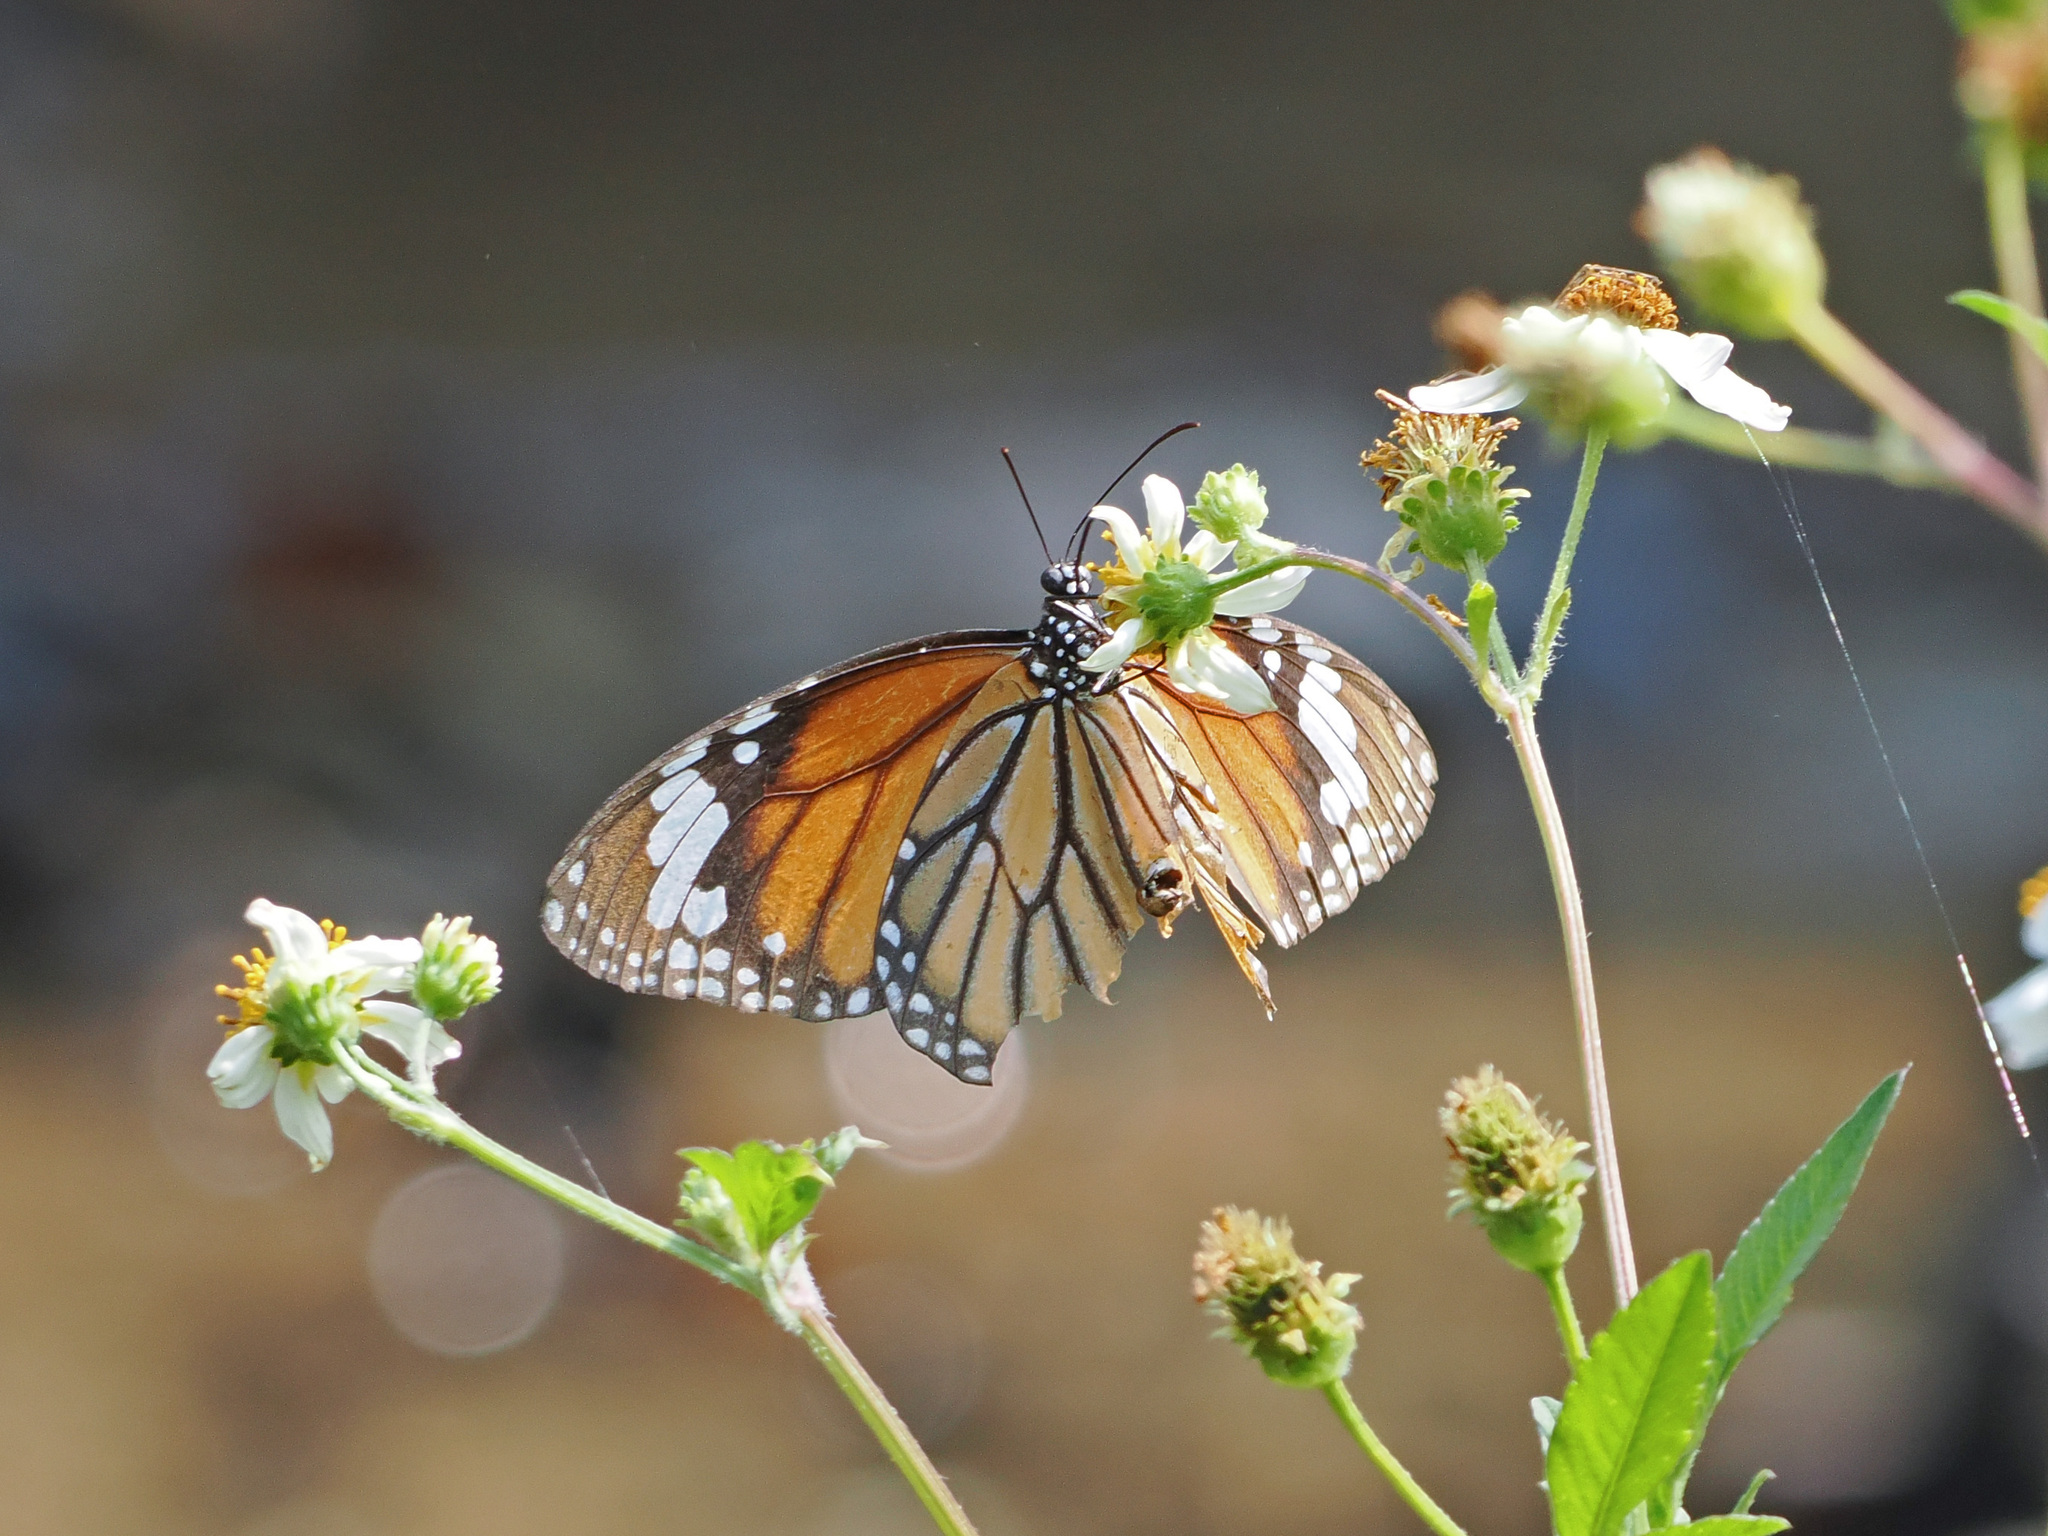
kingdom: Animalia
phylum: Arthropoda
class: Insecta
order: Lepidoptera
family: Nymphalidae
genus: Danaus
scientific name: Danaus genutia
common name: Common tiger butterfly
